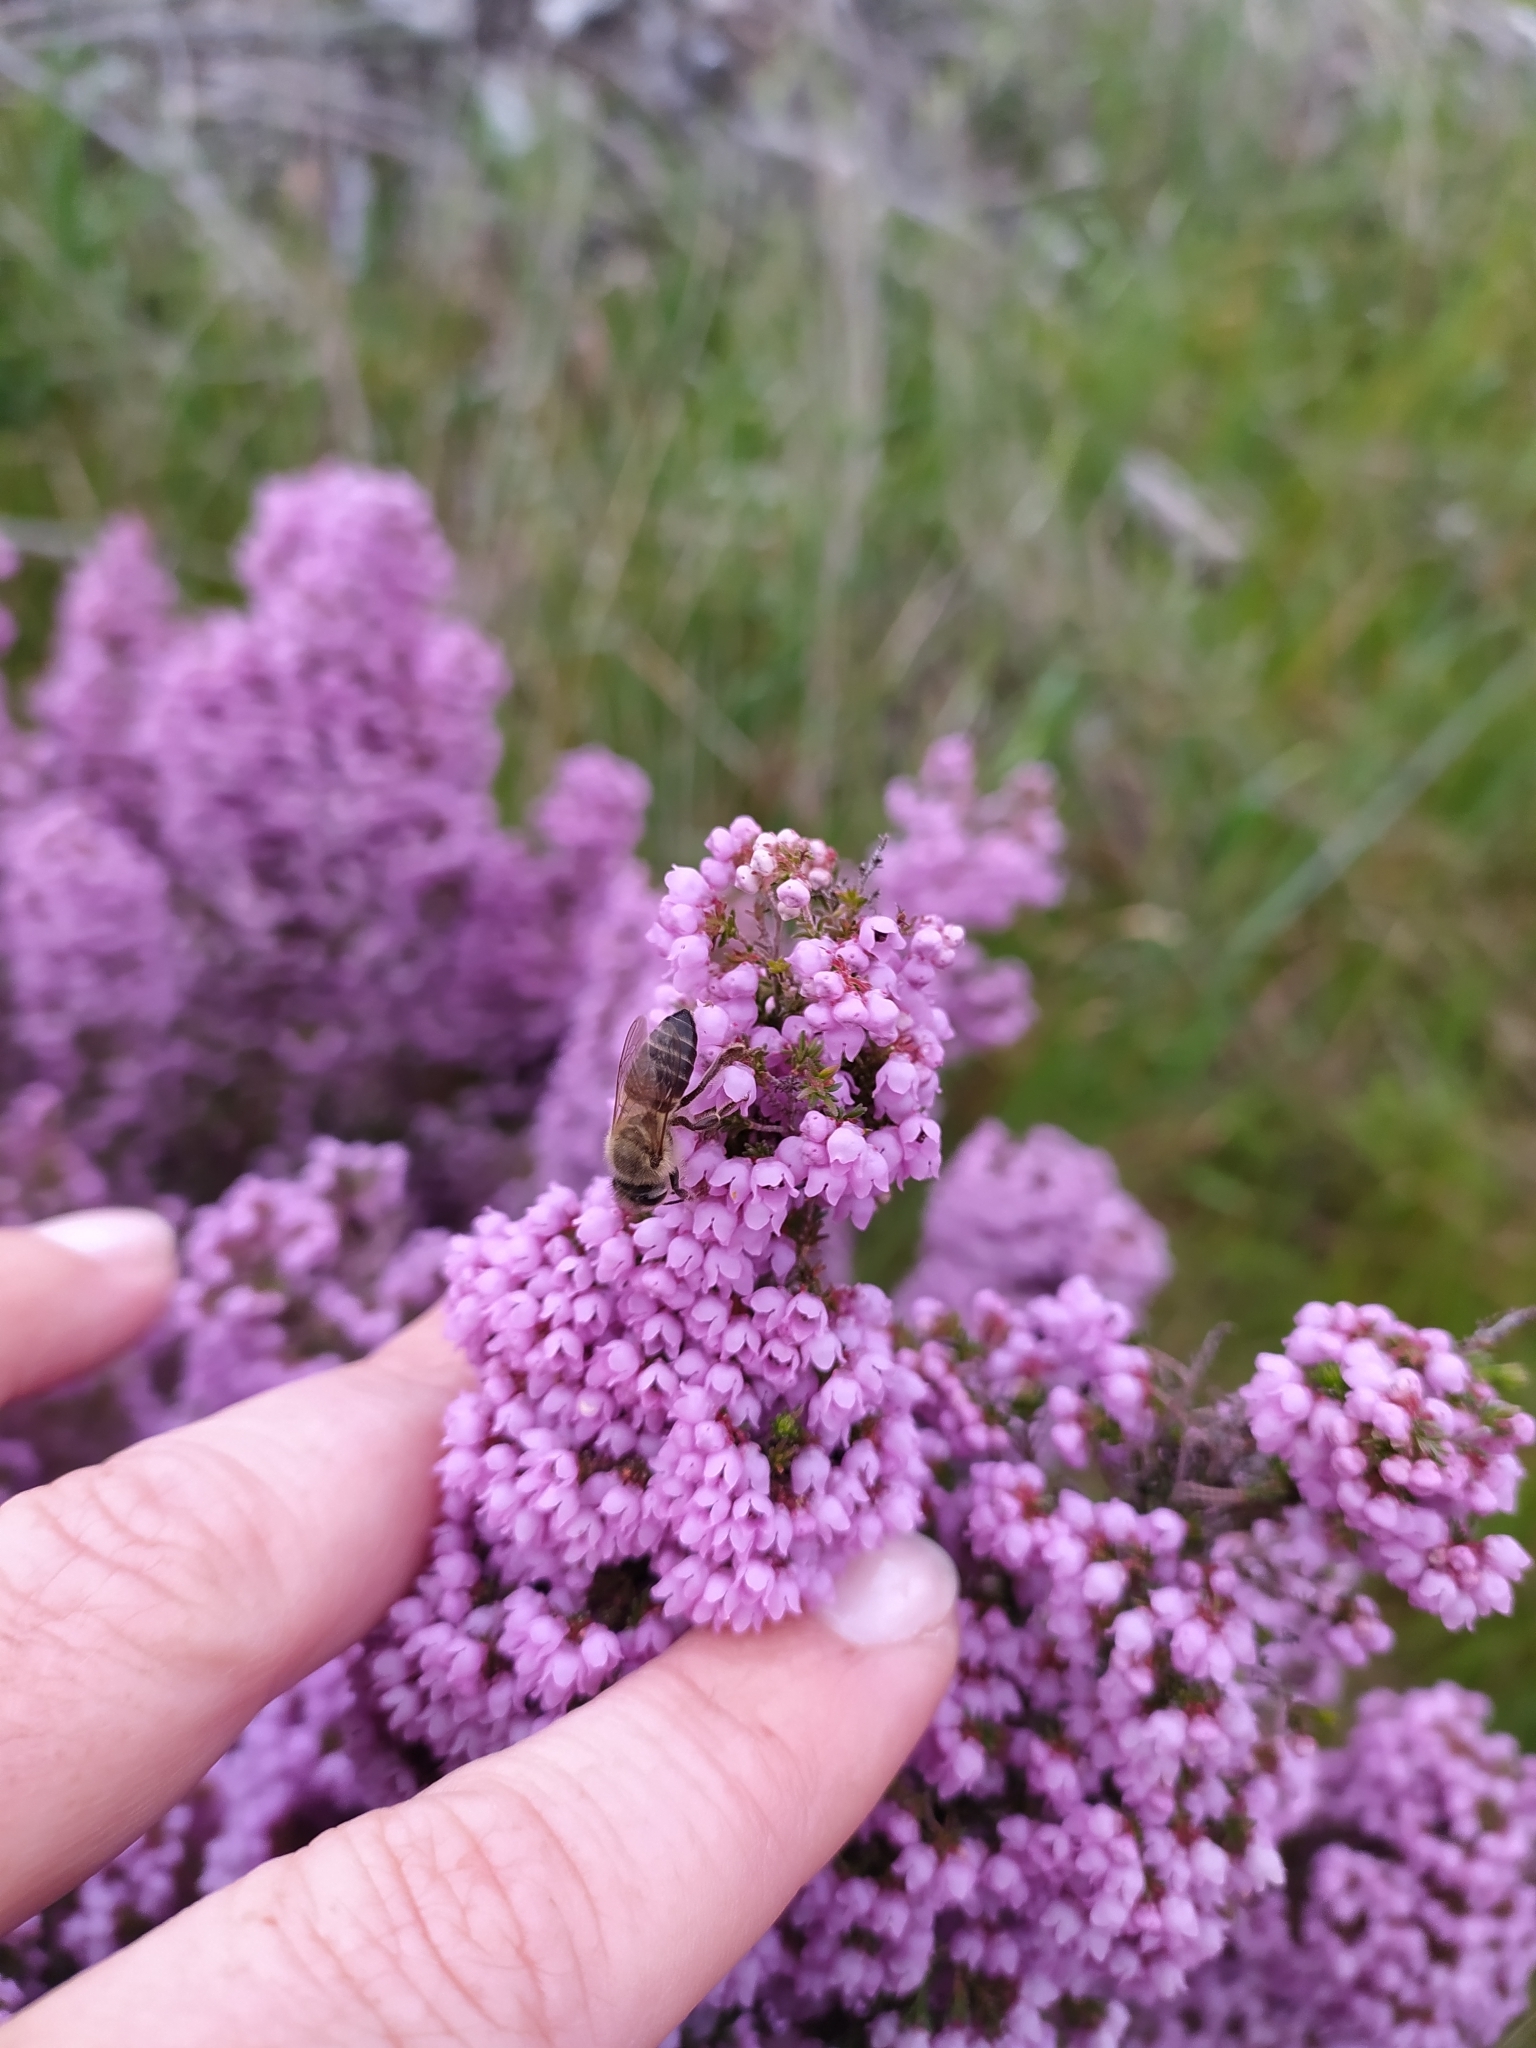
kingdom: Animalia
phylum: Arthropoda
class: Insecta
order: Hymenoptera
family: Apidae
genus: Apis
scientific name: Apis mellifera
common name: Honey bee
